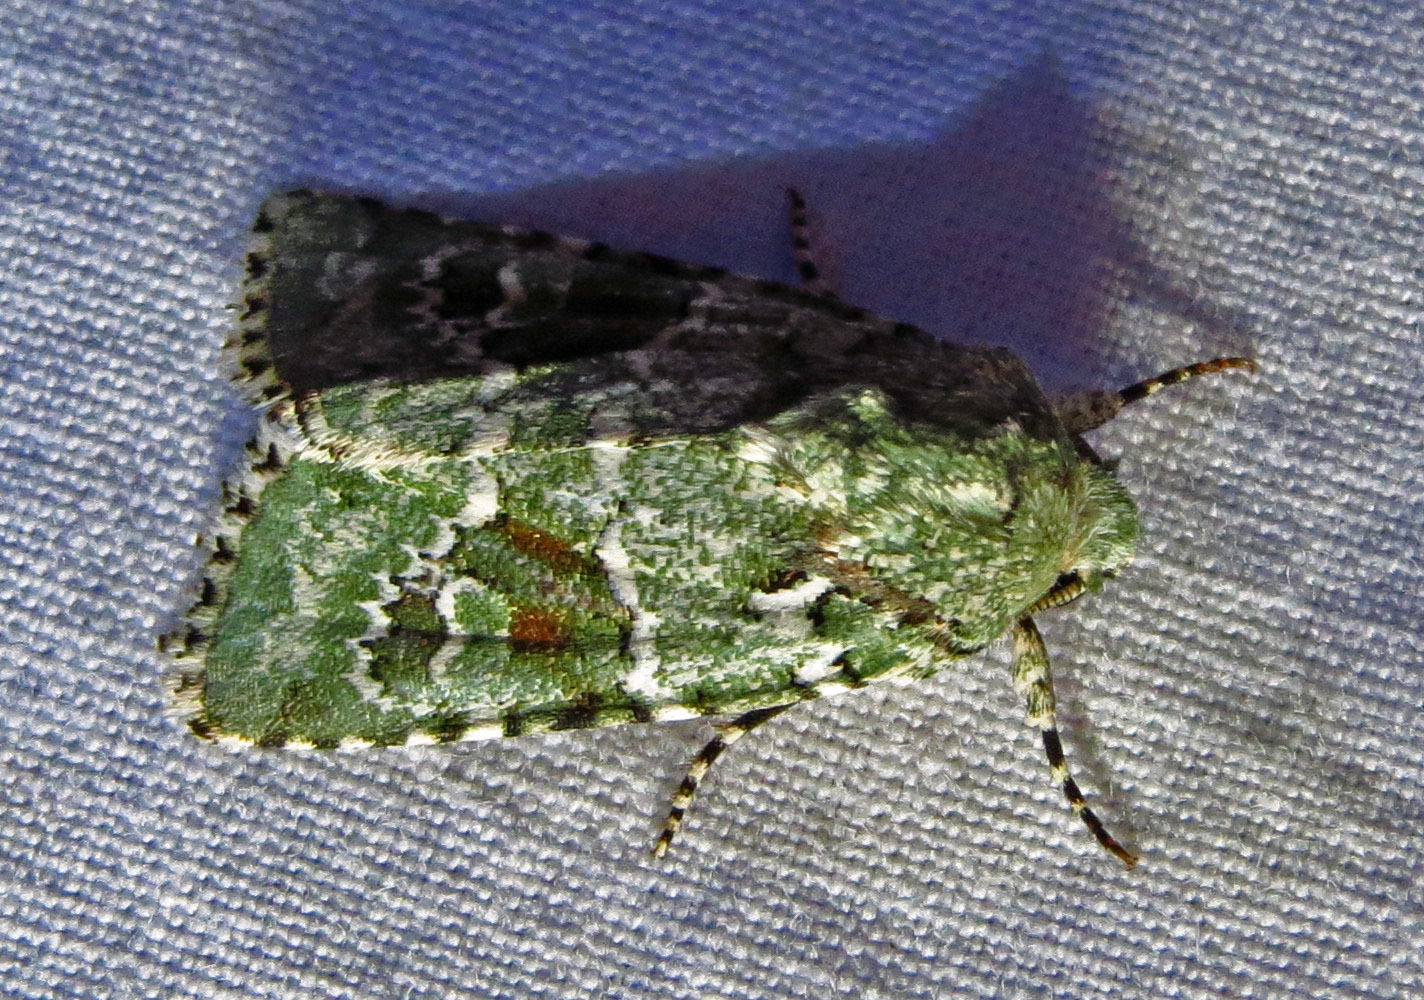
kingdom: Animalia
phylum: Arthropoda
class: Insecta
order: Lepidoptera
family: Noctuidae
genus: Lacinipolia
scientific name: Lacinipolia laudabilis
